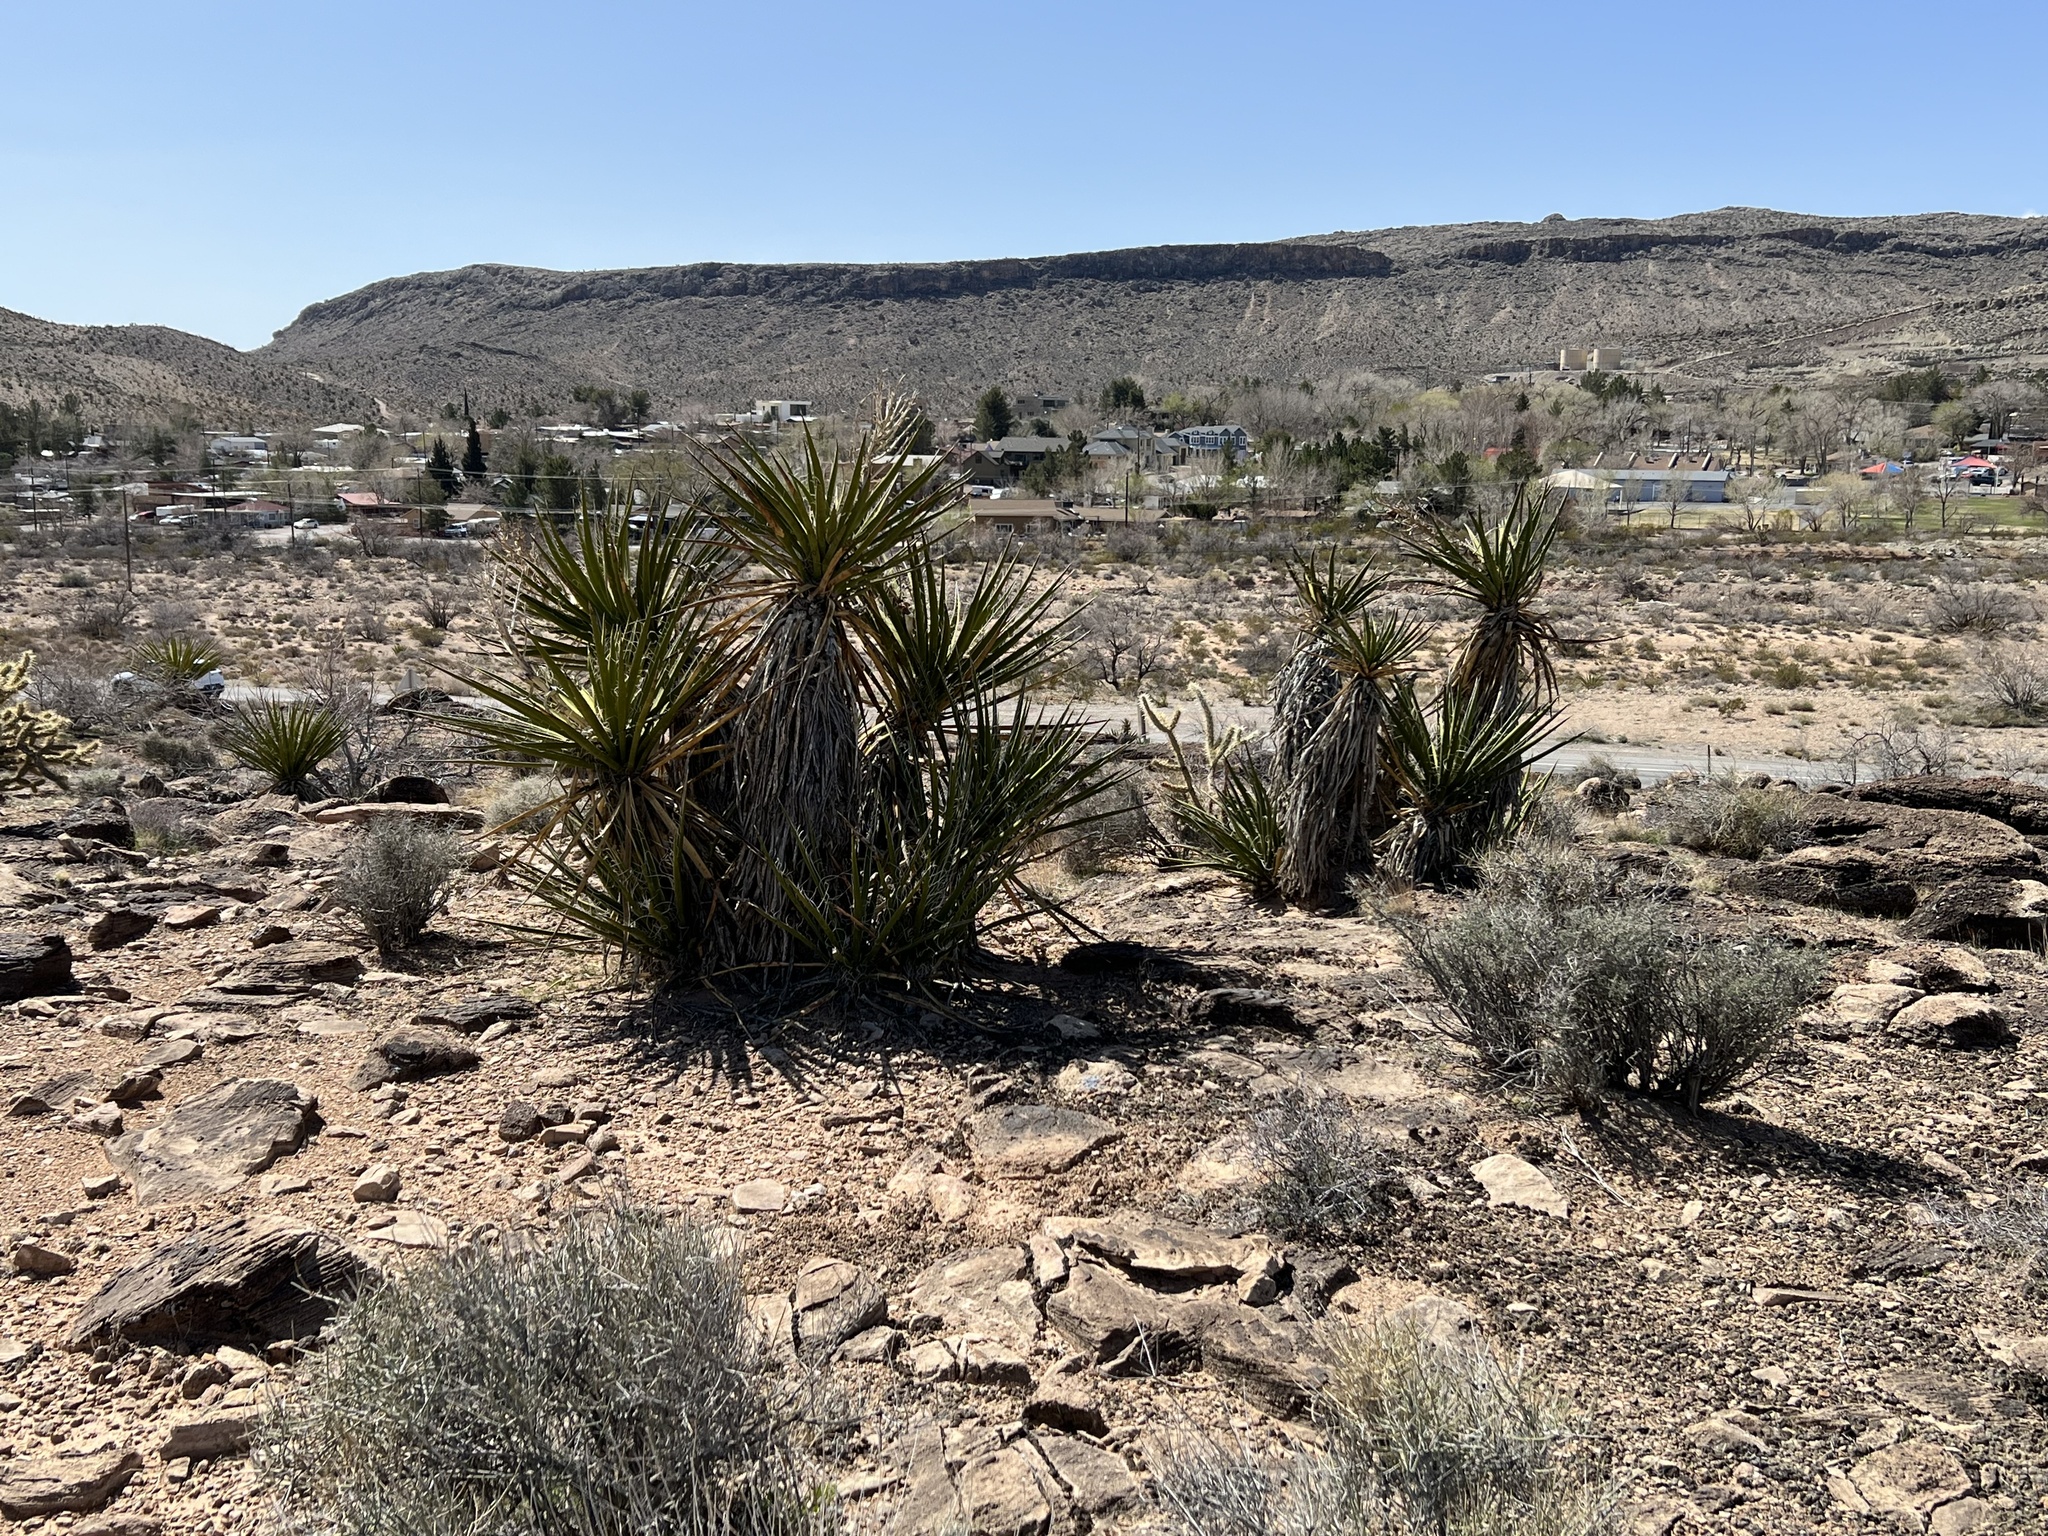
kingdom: Plantae
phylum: Tracheophyta
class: Liliopsida
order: Asparagales
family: Asparagaceae
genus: Yucca
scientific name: Yucca schidigera
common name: Mojave yucca
